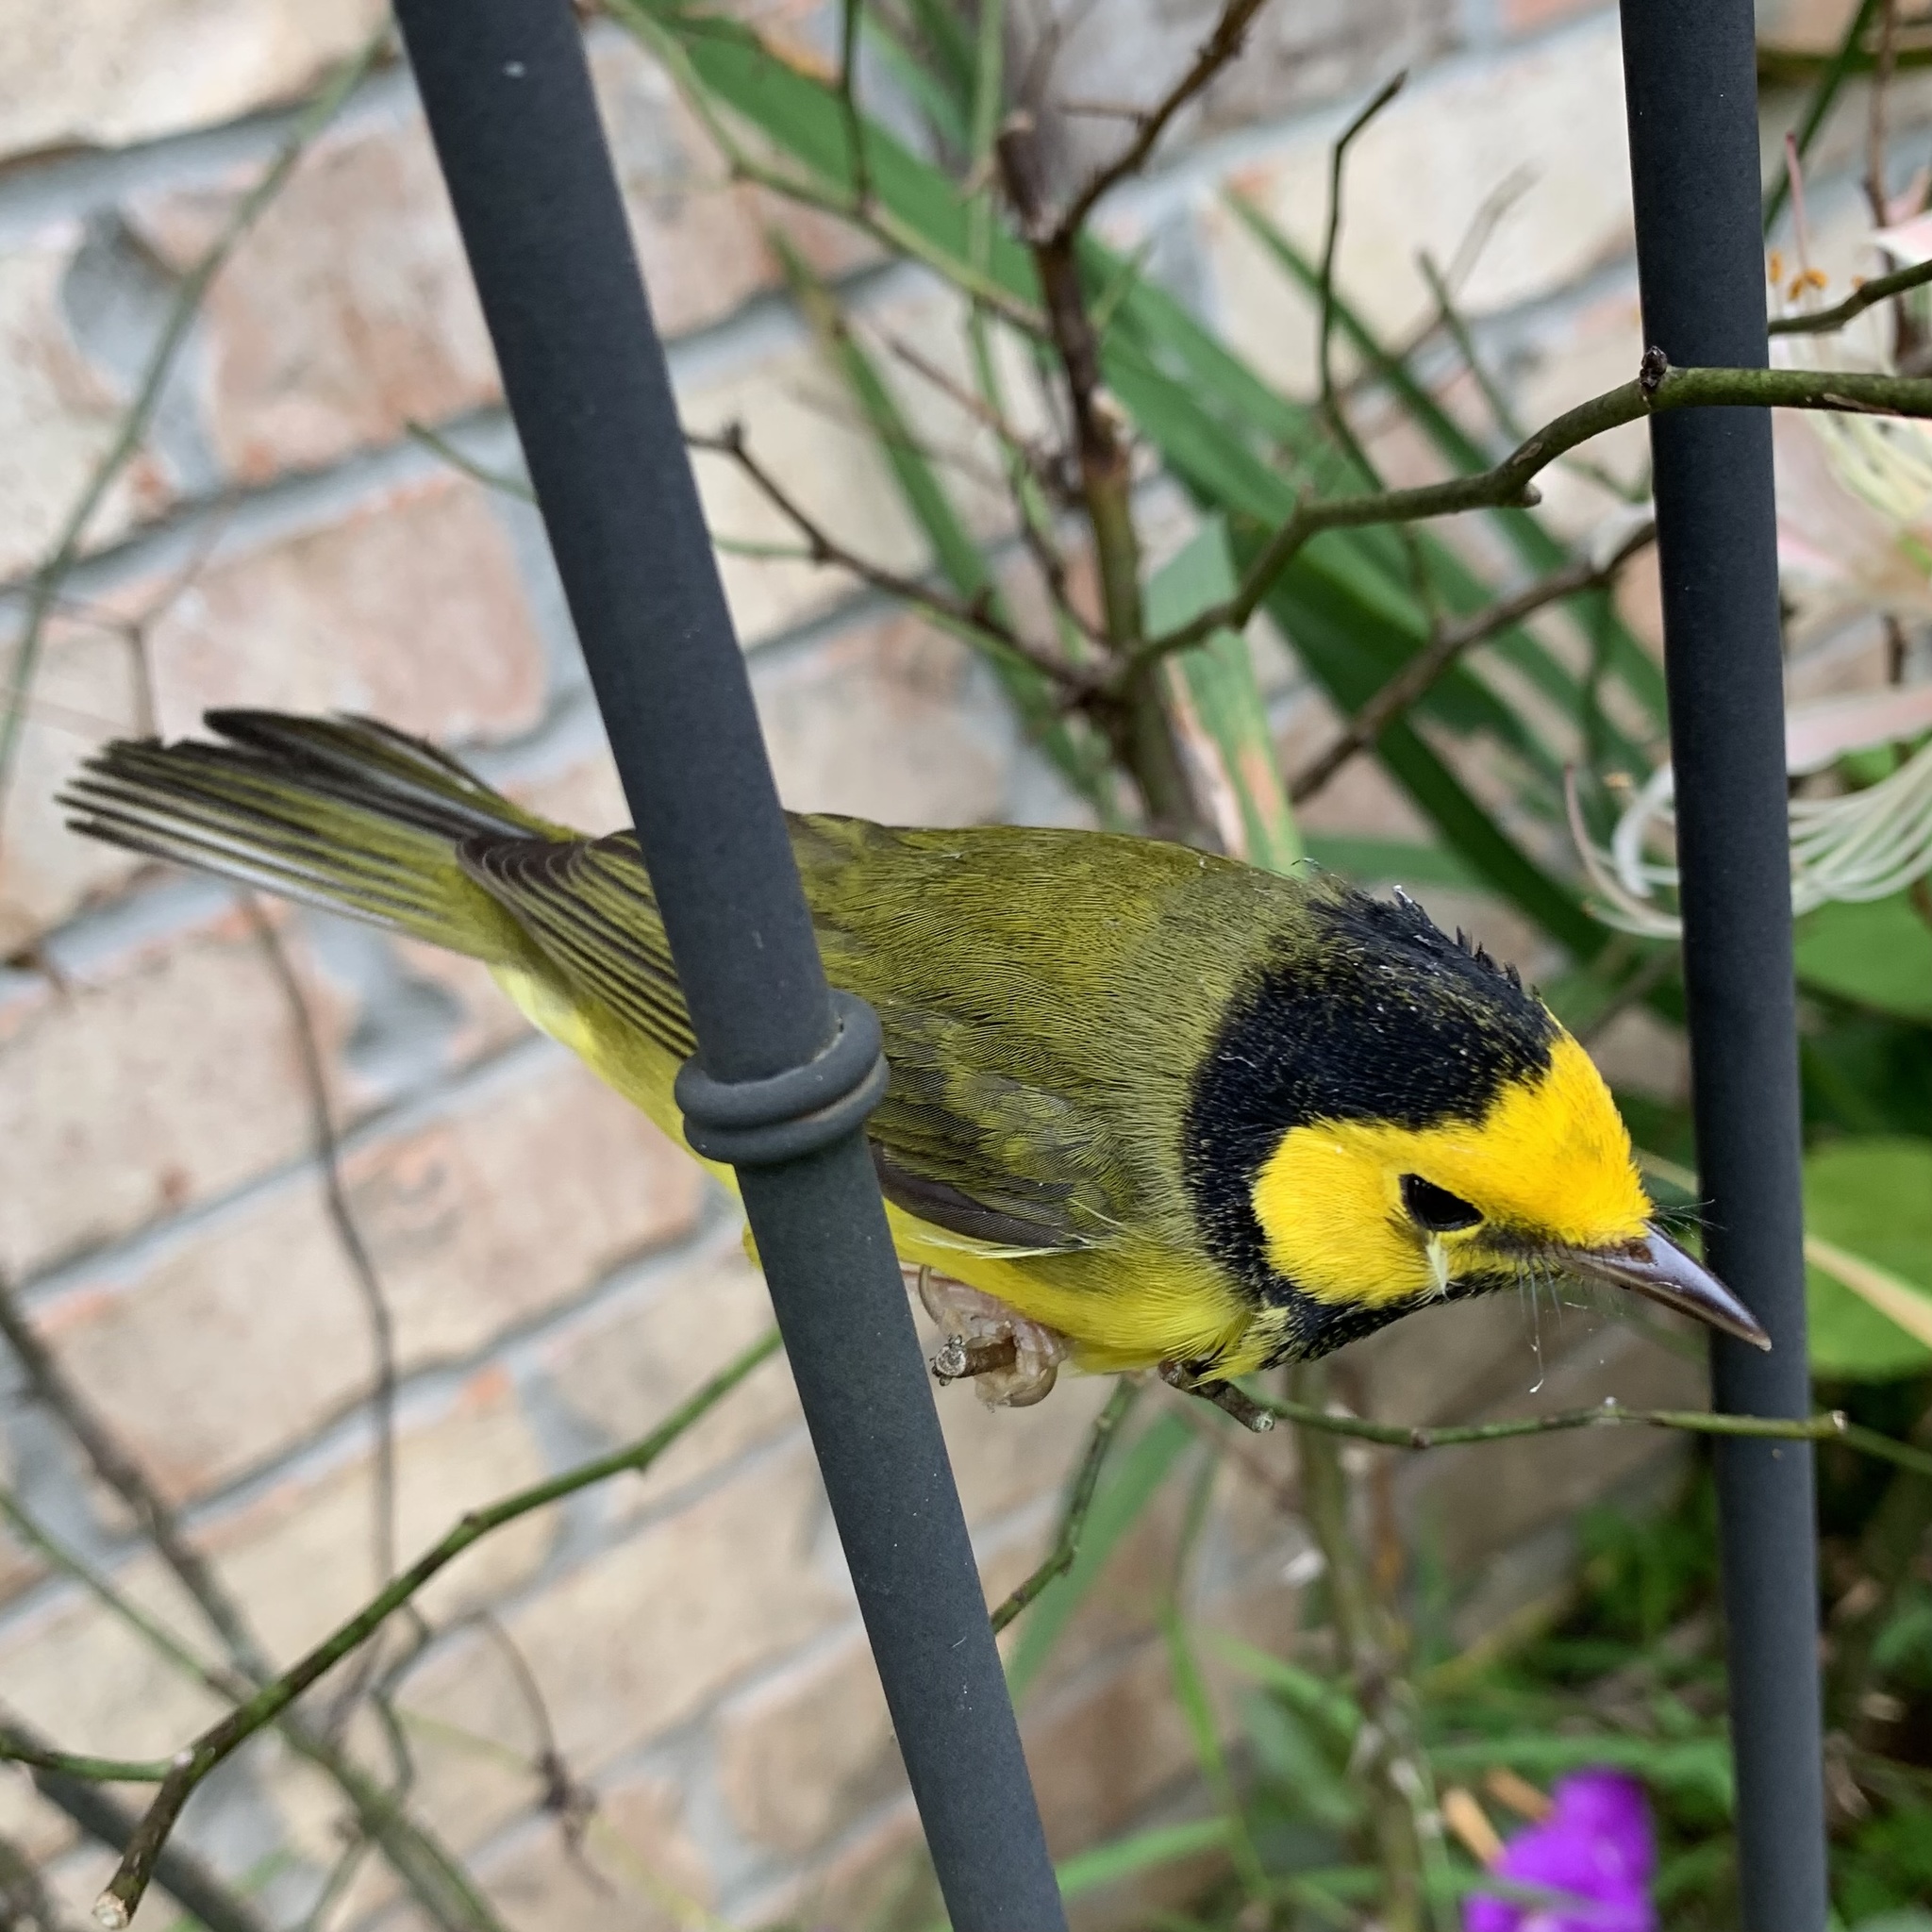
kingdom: Animalia
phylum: Chordata
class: Aves
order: Passeriformes
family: Parulidae
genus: Setophaga
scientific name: Setophaga citrina
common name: Hooded warbler
